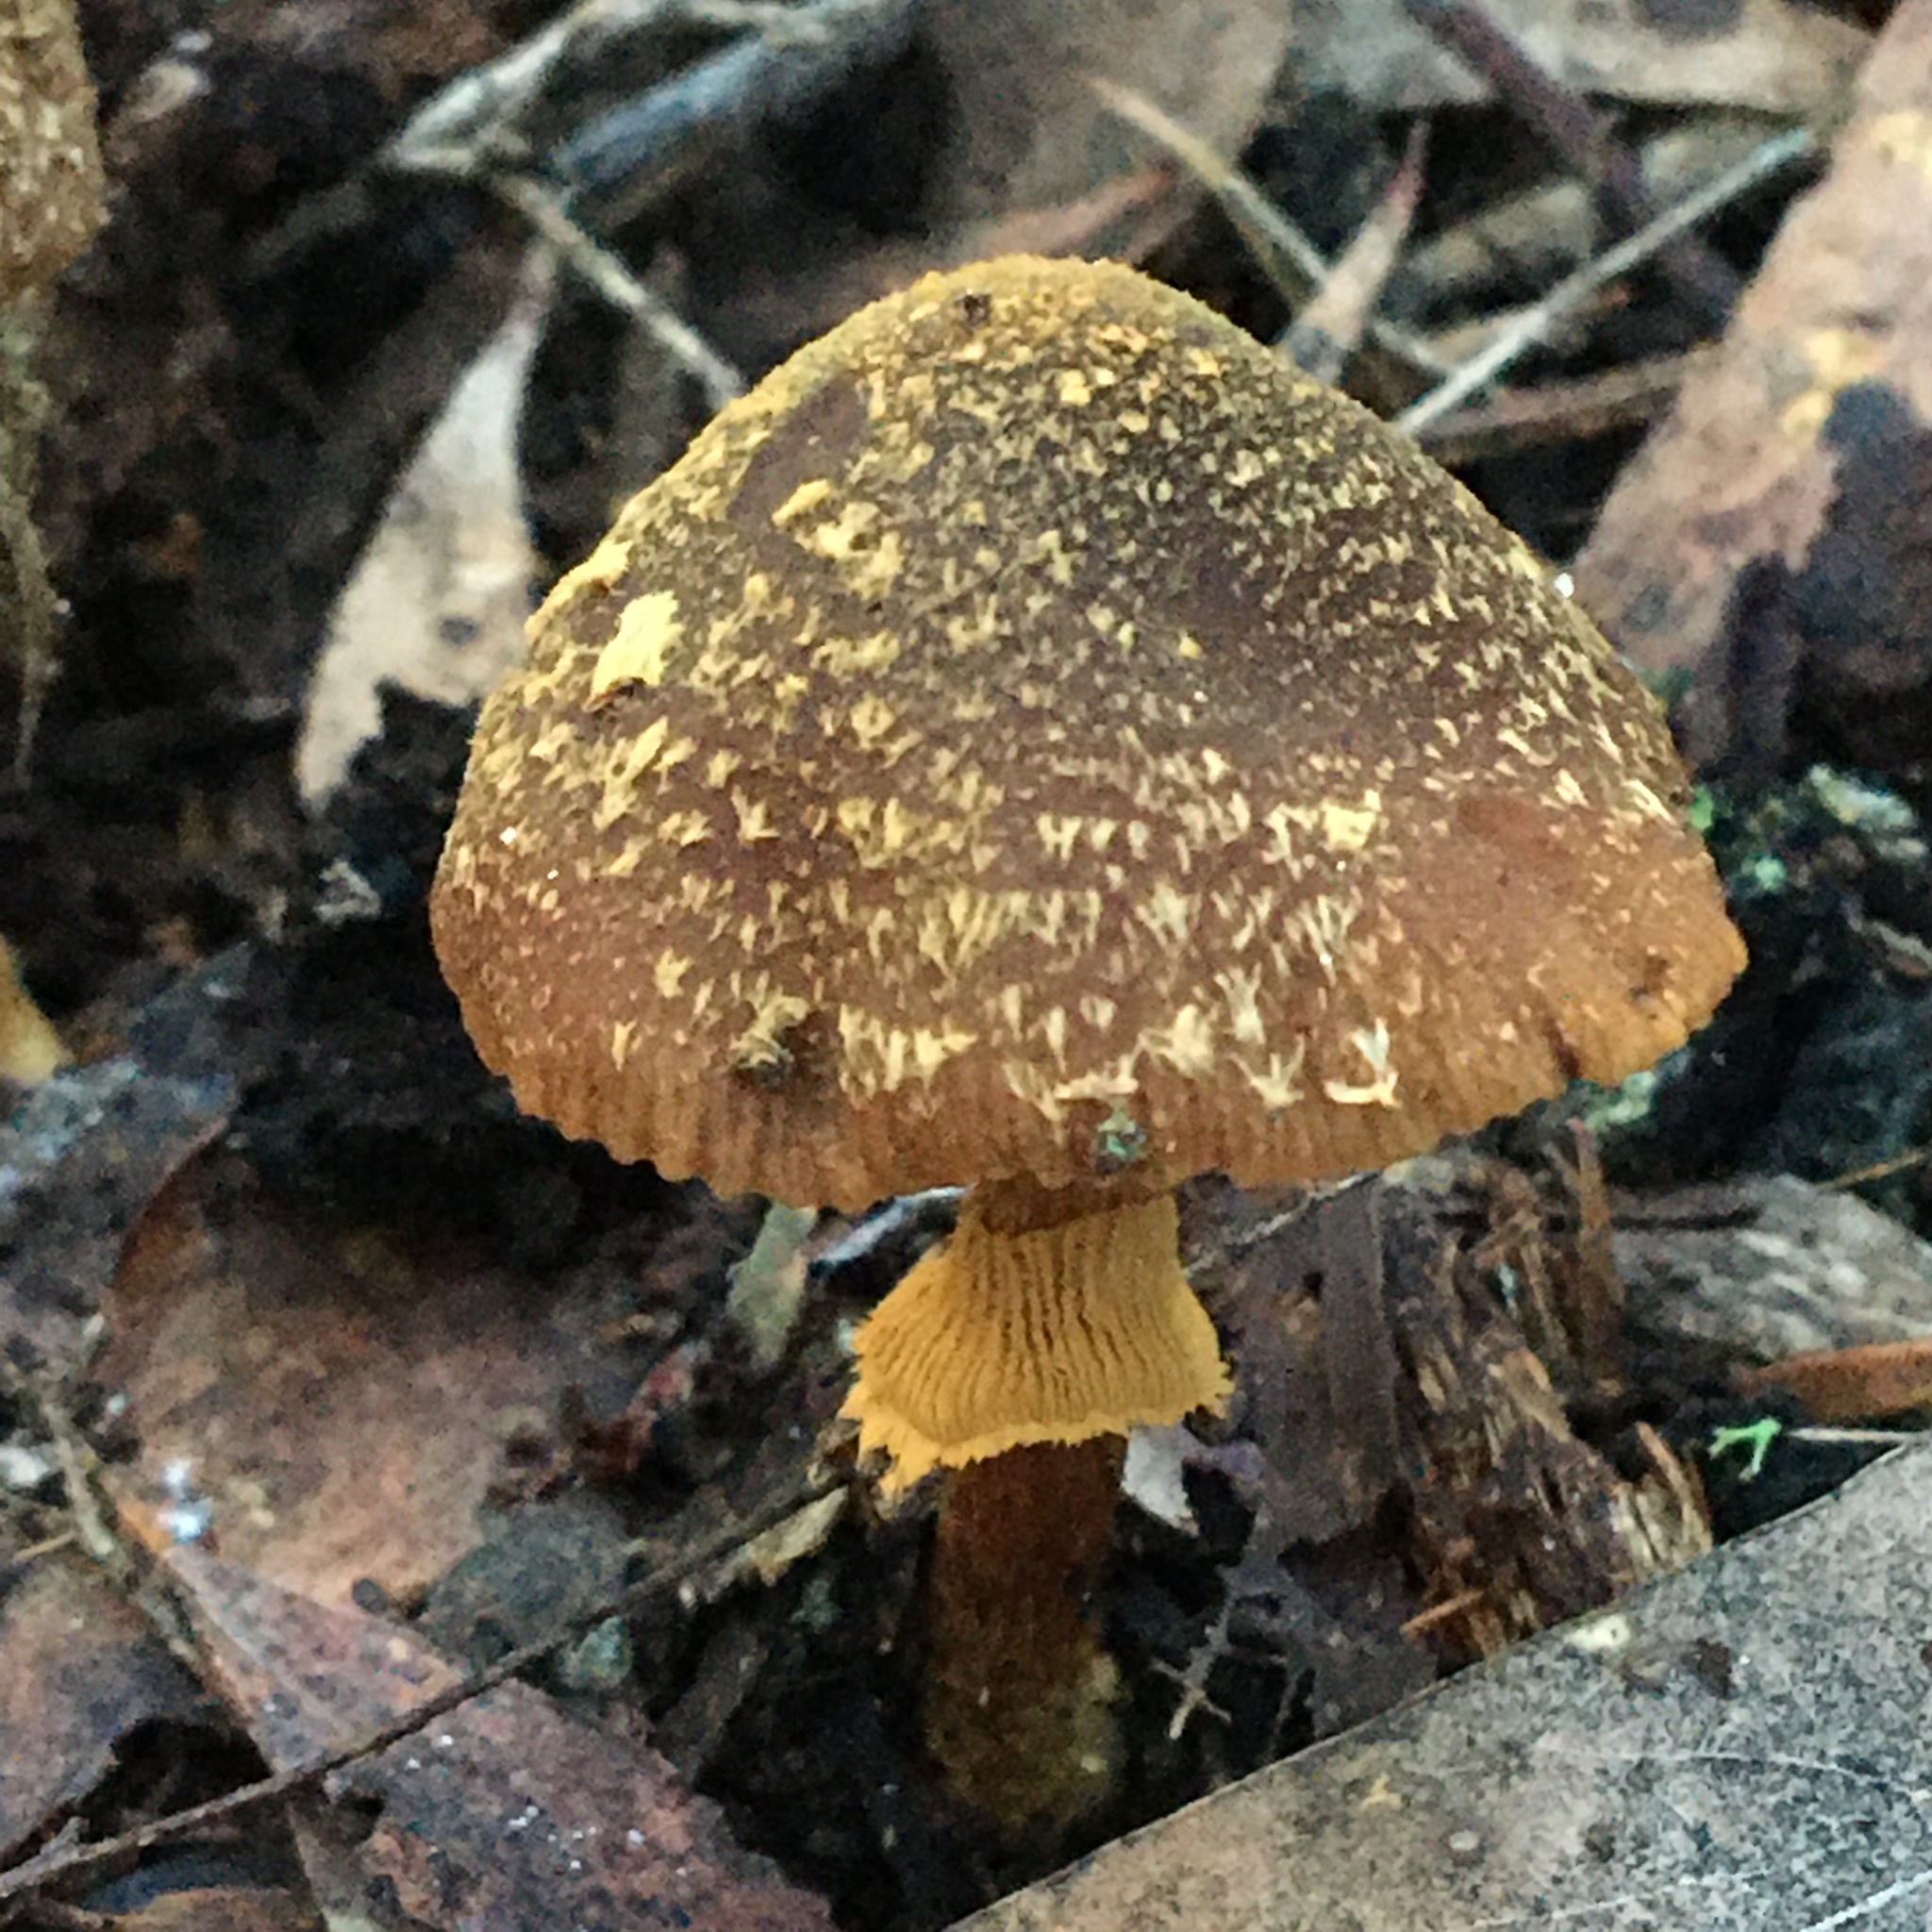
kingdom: Fungi
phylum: Basidiomycota
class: Agaricomycetes
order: Agaricales
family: Bolbitiaceae
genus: Descolea
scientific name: Descolea recedens
